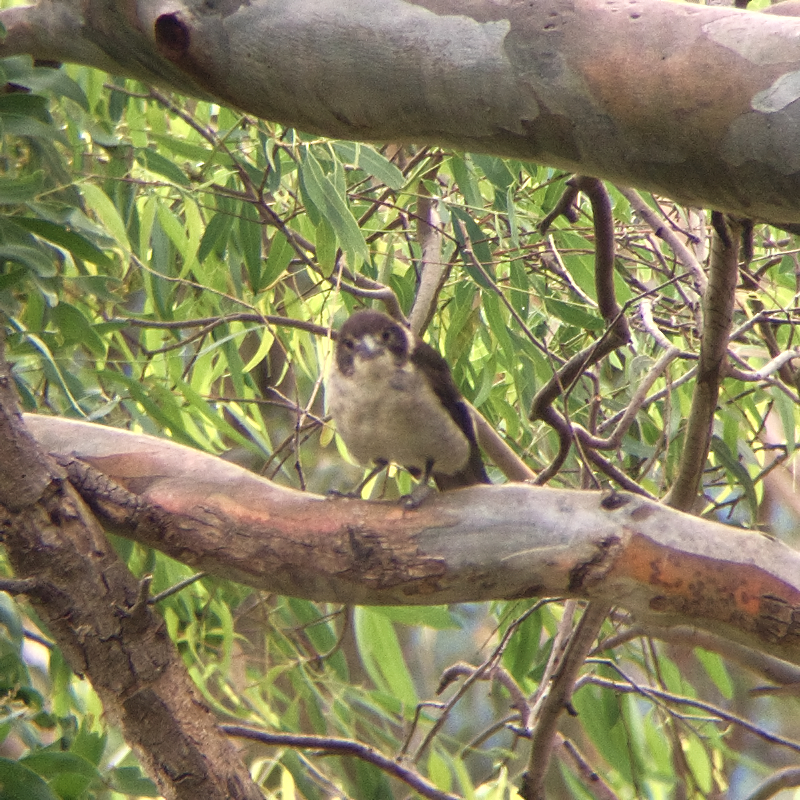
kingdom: Animalia
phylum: Chordata
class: Aves
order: Passeriformes
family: Cracticidae
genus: Cracticus
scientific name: Cracticus torquatus
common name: Grey butcherbird
